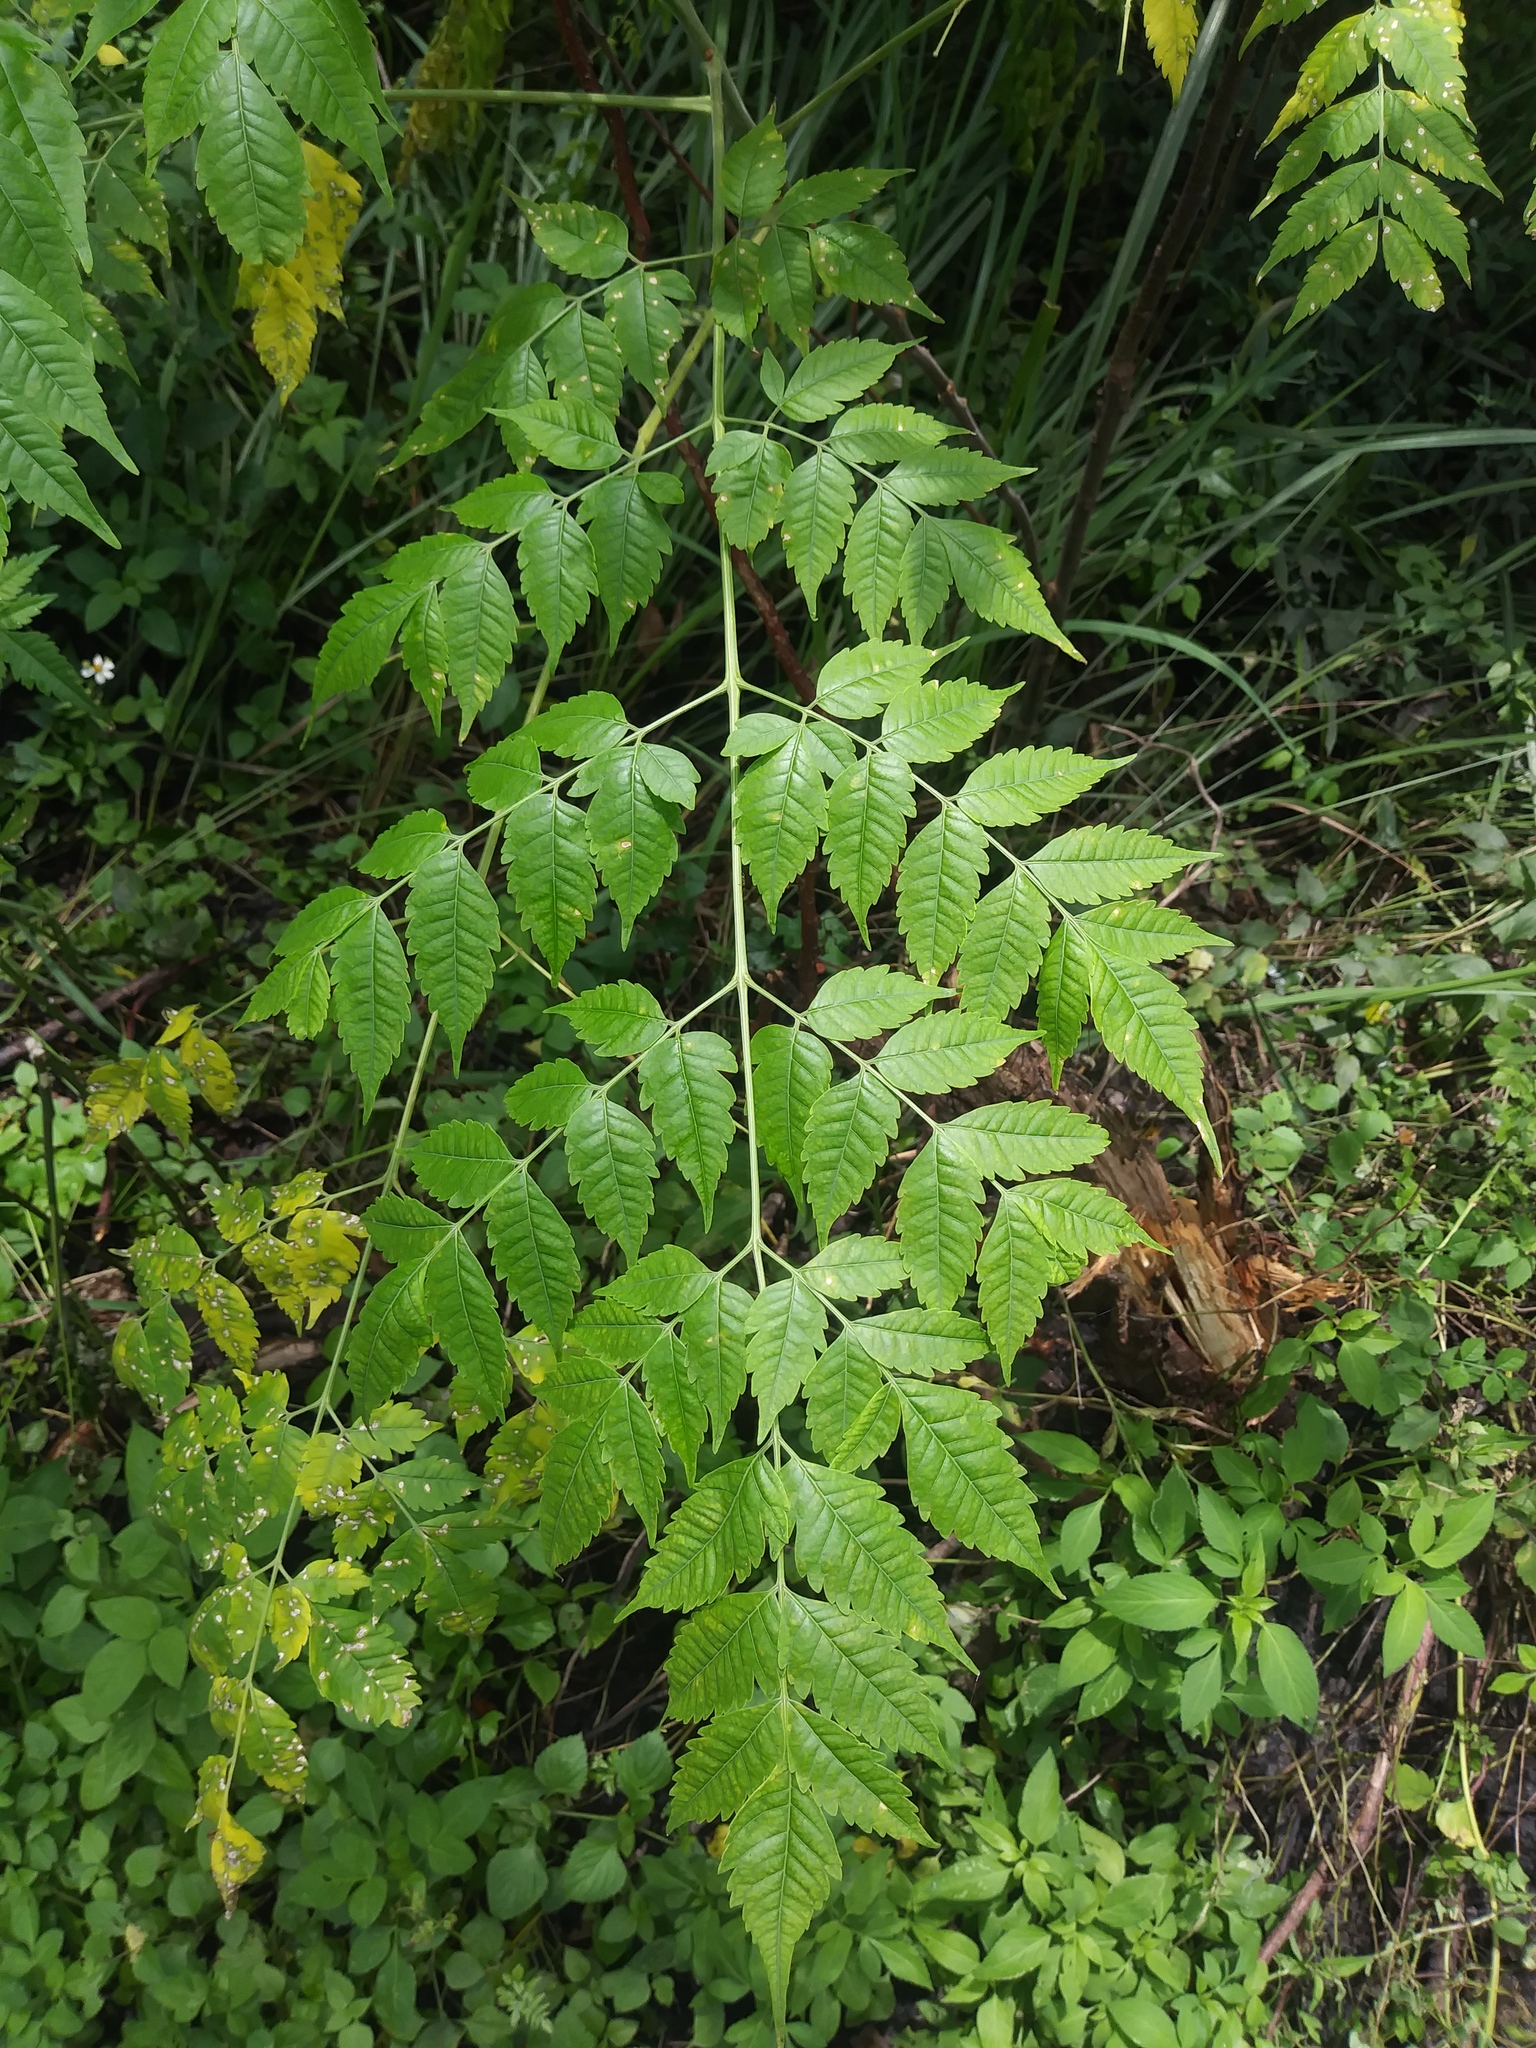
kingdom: Plantae
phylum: Tracheophyta
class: Magnoliopsida
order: Sapindales
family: Meliaceae
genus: Melia
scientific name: Melia azedarach
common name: Chinaberrytree
